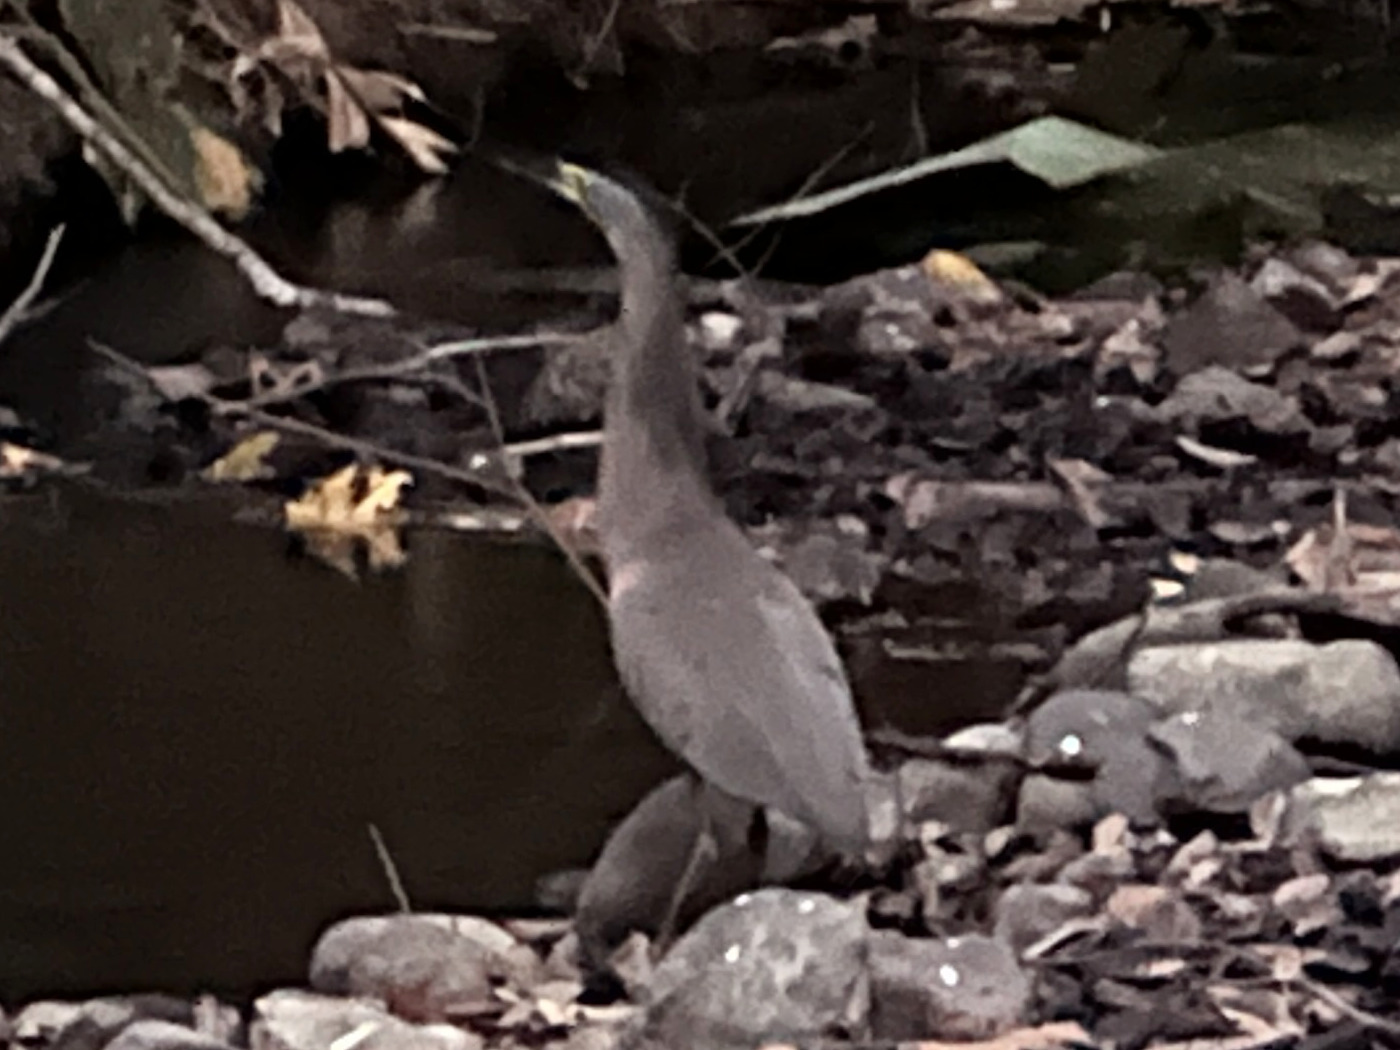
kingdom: Animalia
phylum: Chordata
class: Aves
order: Pelecaniformes
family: Ardeidae
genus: Tigrisoma
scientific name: Tigrisoma mexicanum
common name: Bare-throated tiger-heron
